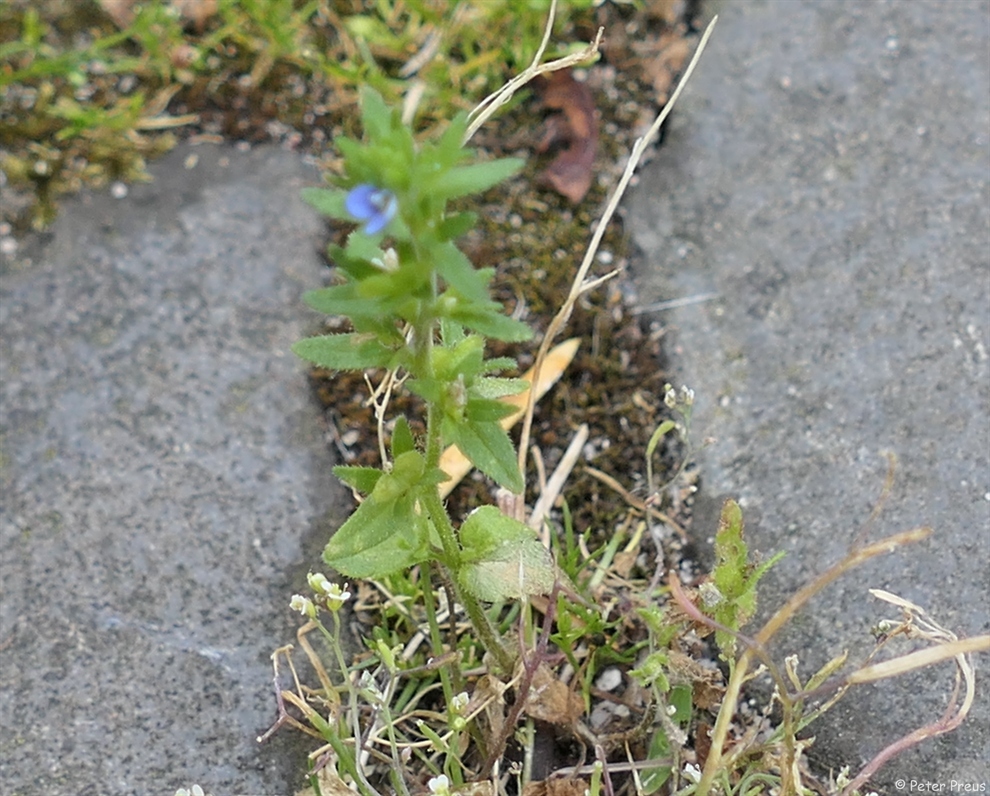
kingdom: Plantae
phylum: Tracheophyta
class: Magnoliopsida
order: Lamiales
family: Plantaginaceae
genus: Veronica
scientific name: Veronica arvensis
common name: Corn speedwell
